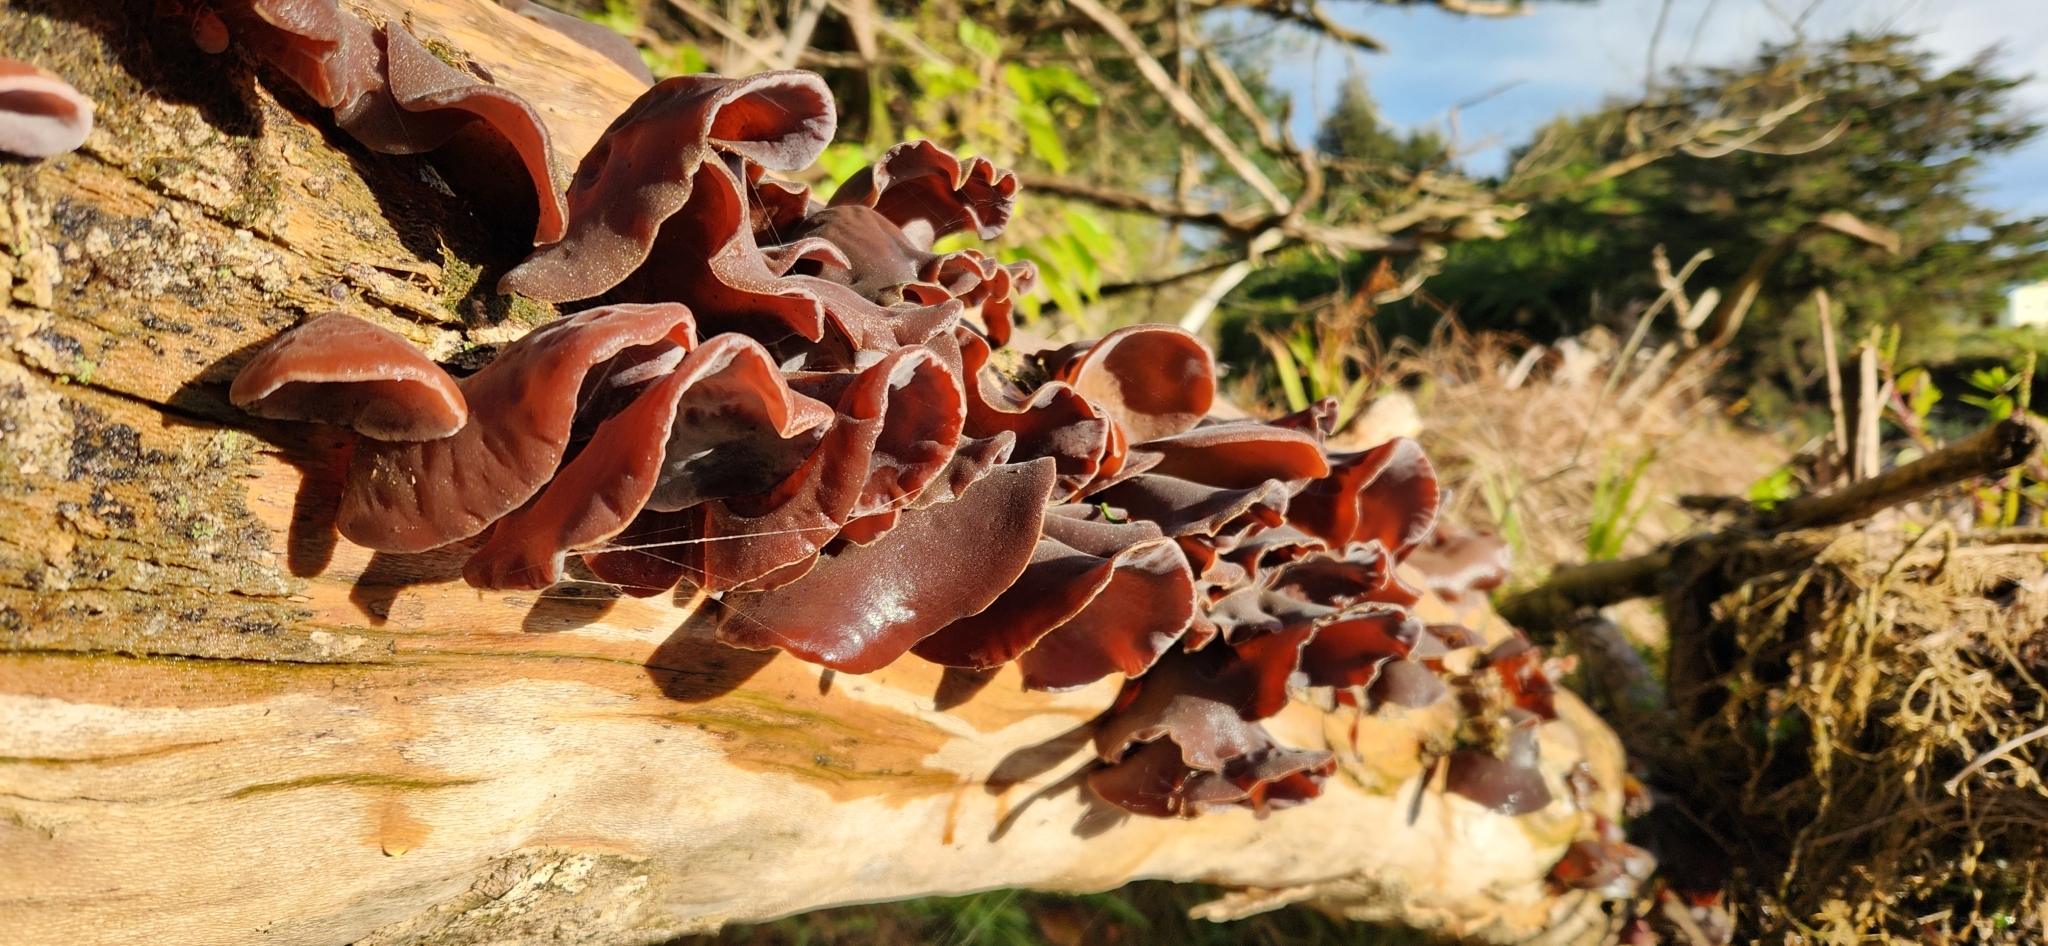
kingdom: Fungi
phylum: Basidiomycota
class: Agaricomycetes
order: Auriculariales
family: Auriculariaceae
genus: Auricularia
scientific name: Auricularia cornea
